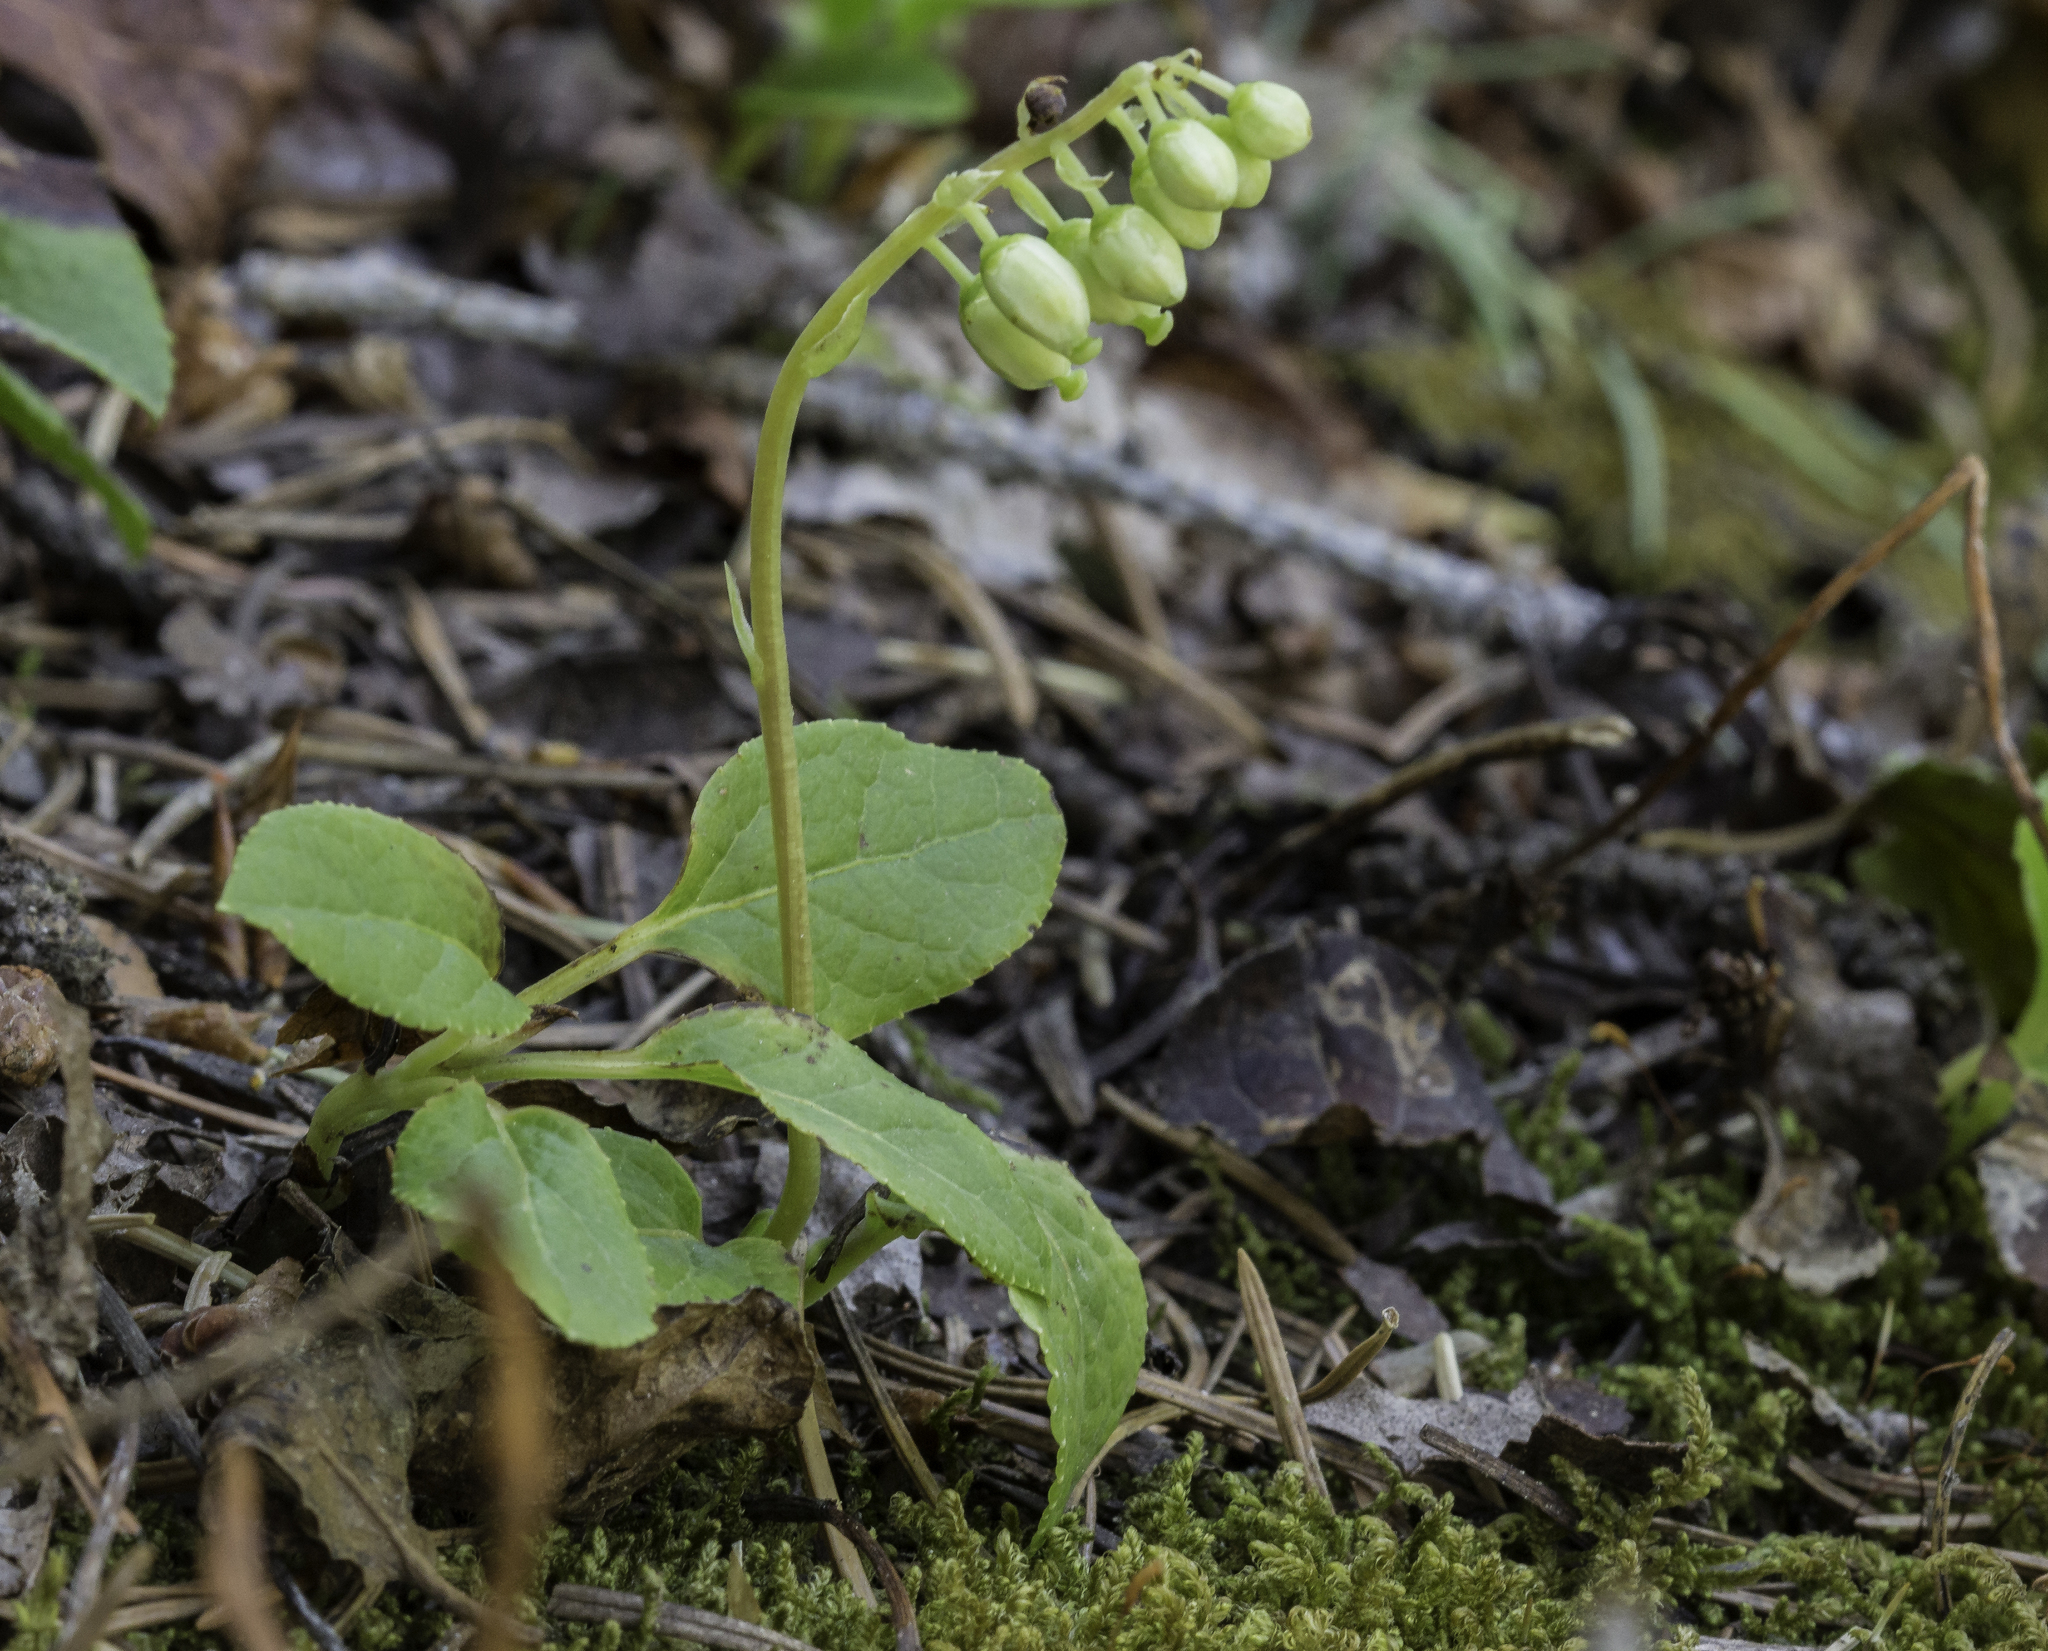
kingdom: Plantae
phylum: Tracheophyta
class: Magnoliopsida
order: Ericales
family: Ericaceae
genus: Orthilia
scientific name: Orthilia secunda
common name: One-sided orthilia
